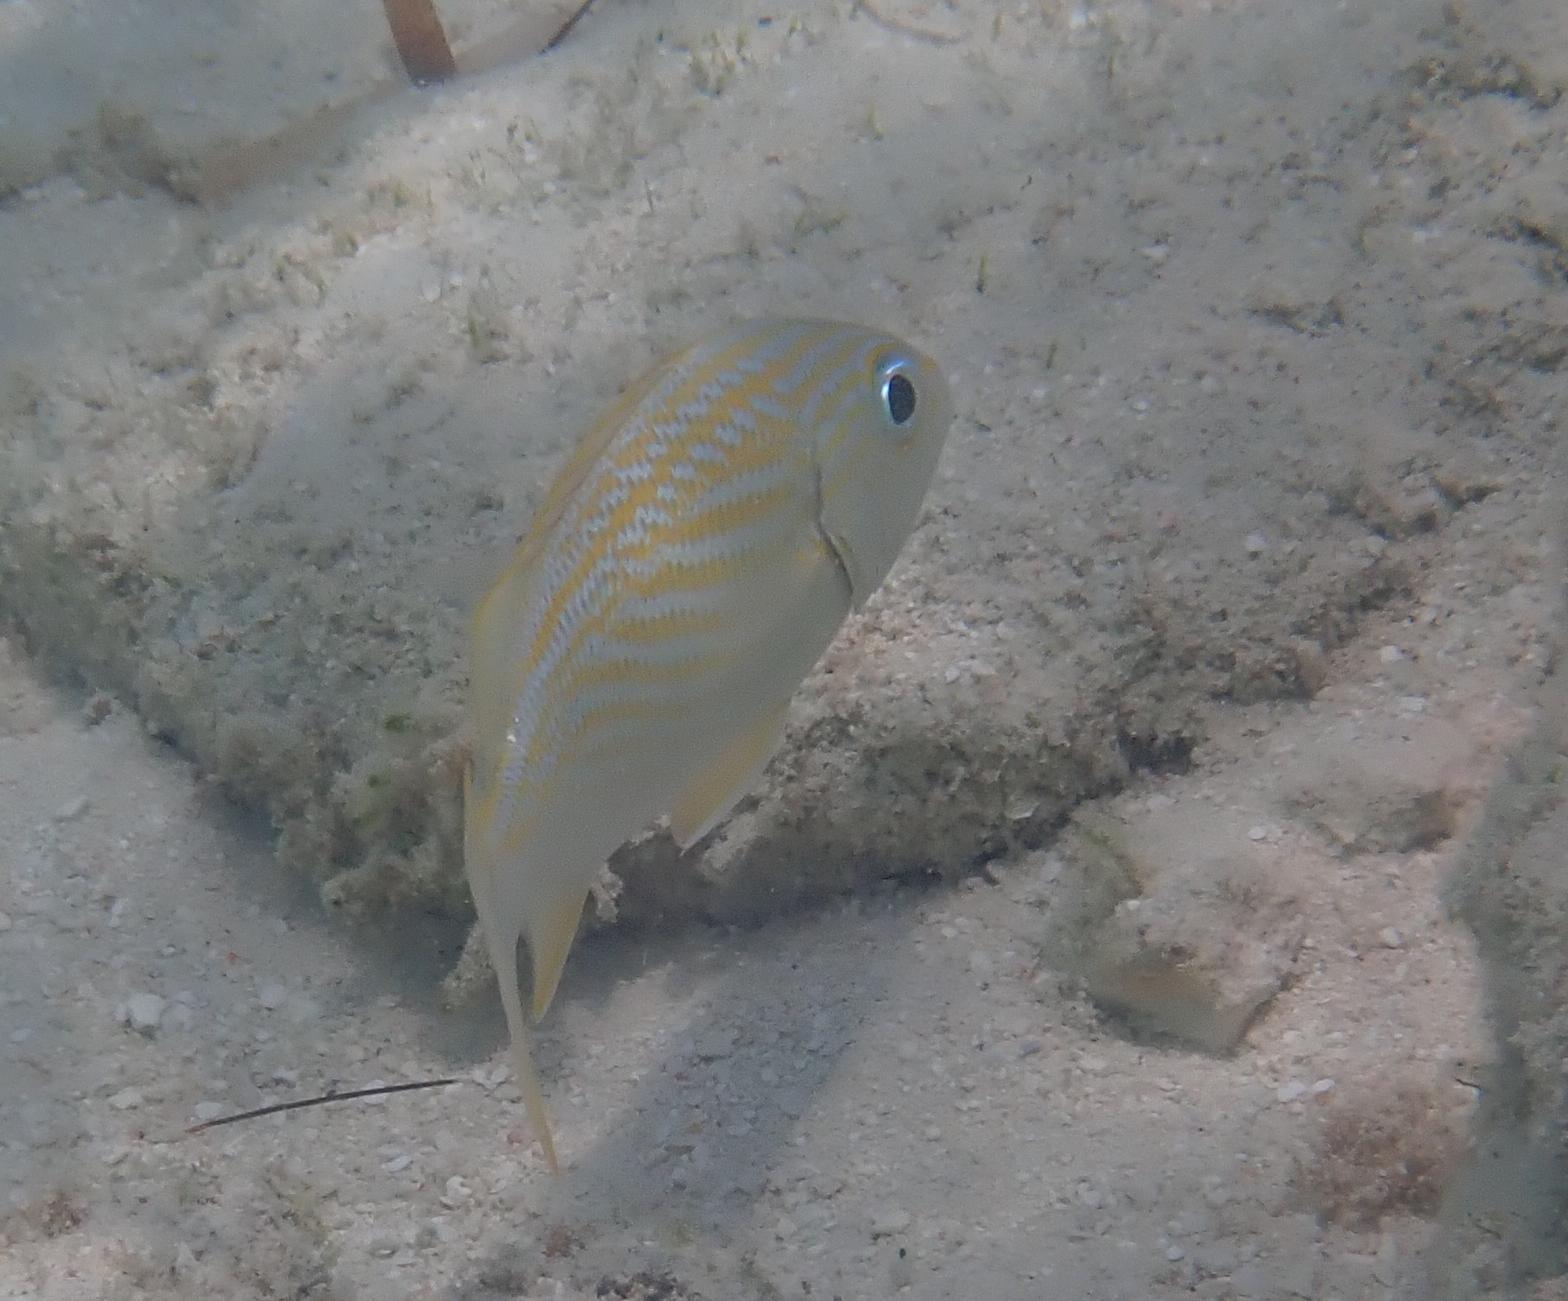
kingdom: Animalia
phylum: Chordata
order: Perciformes
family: Haemulidae
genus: Haemulon
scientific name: Haemulon flavolineatum
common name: French grunt
